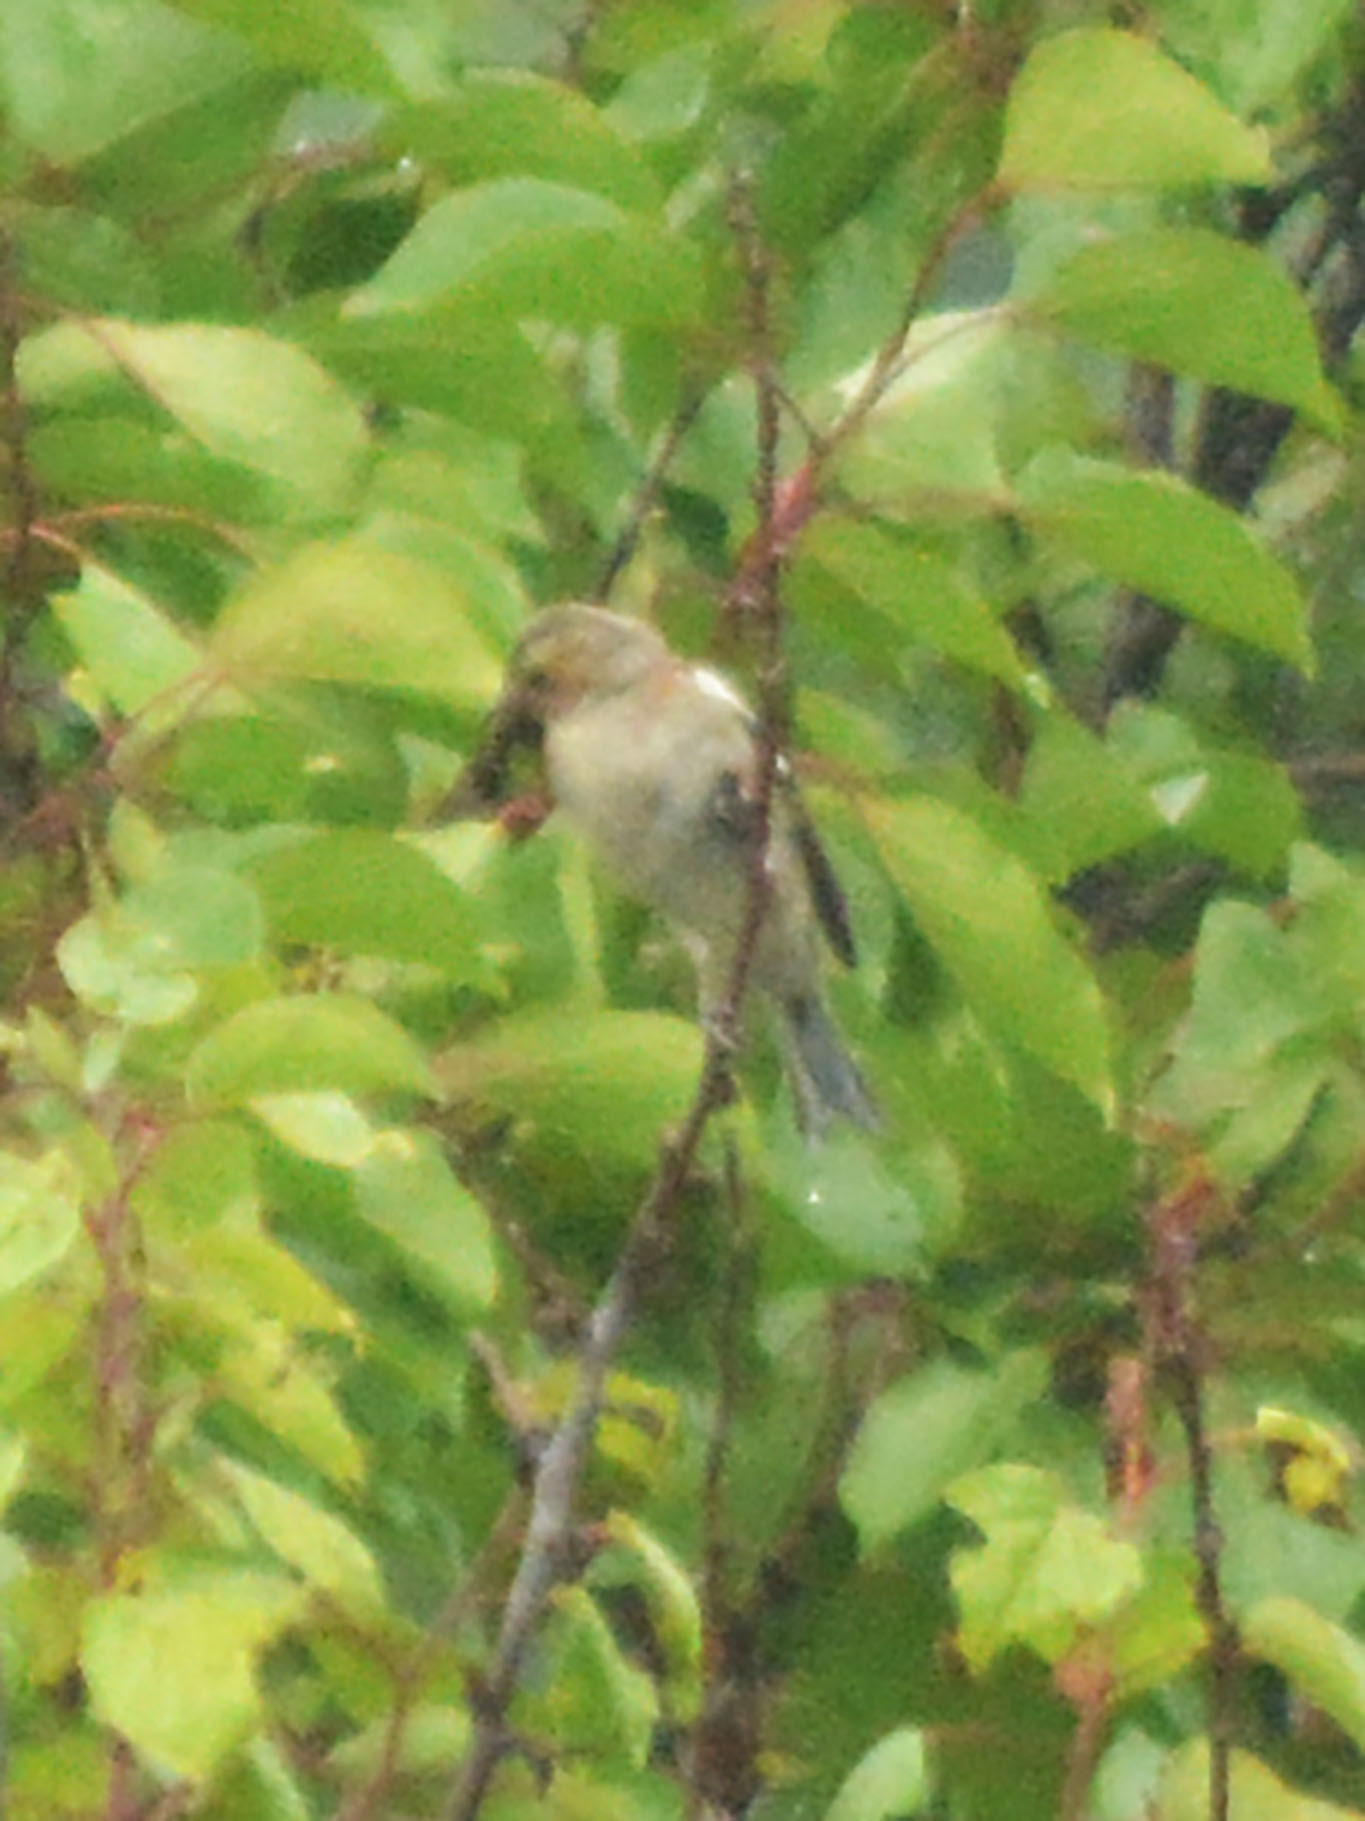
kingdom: Animalia
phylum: Chordata
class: Aves
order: Passeriformes
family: Fringillidae
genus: Fringilla
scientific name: Fringilla coelebs
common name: Common chaffinch
